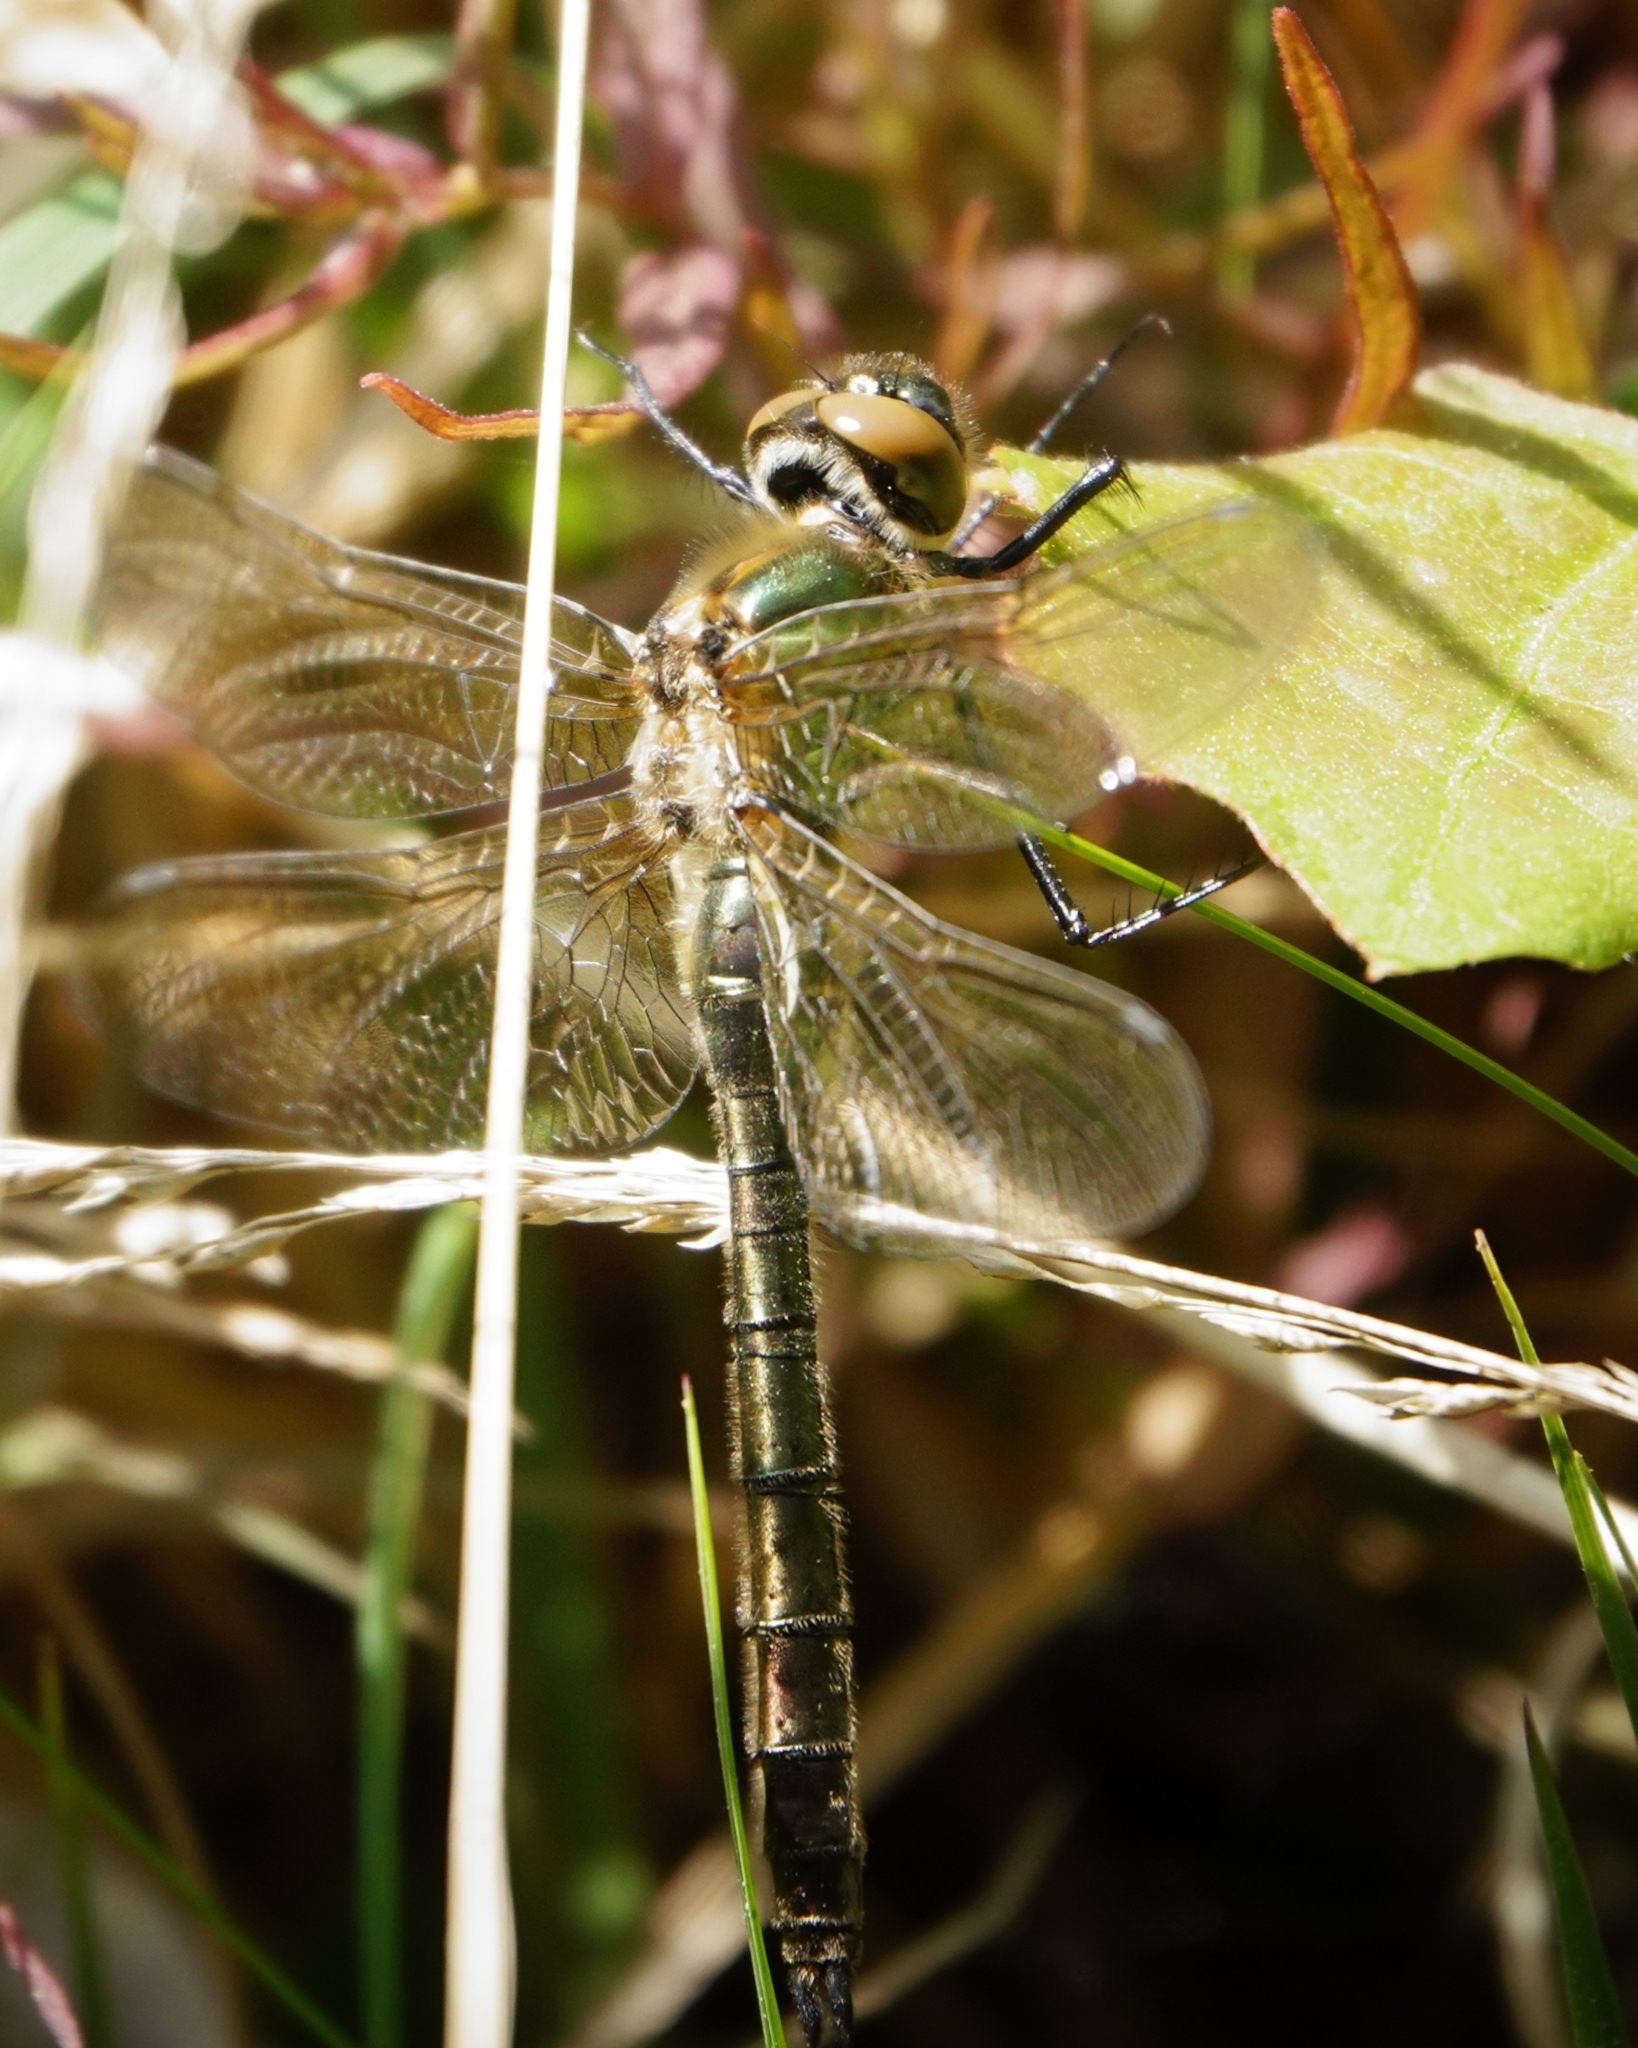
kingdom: Animalia
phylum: Arthropoda
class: Insecta
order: Odonata
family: Corduliidae
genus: Cordulia
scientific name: Cordulia aenea
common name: Downy emerald
